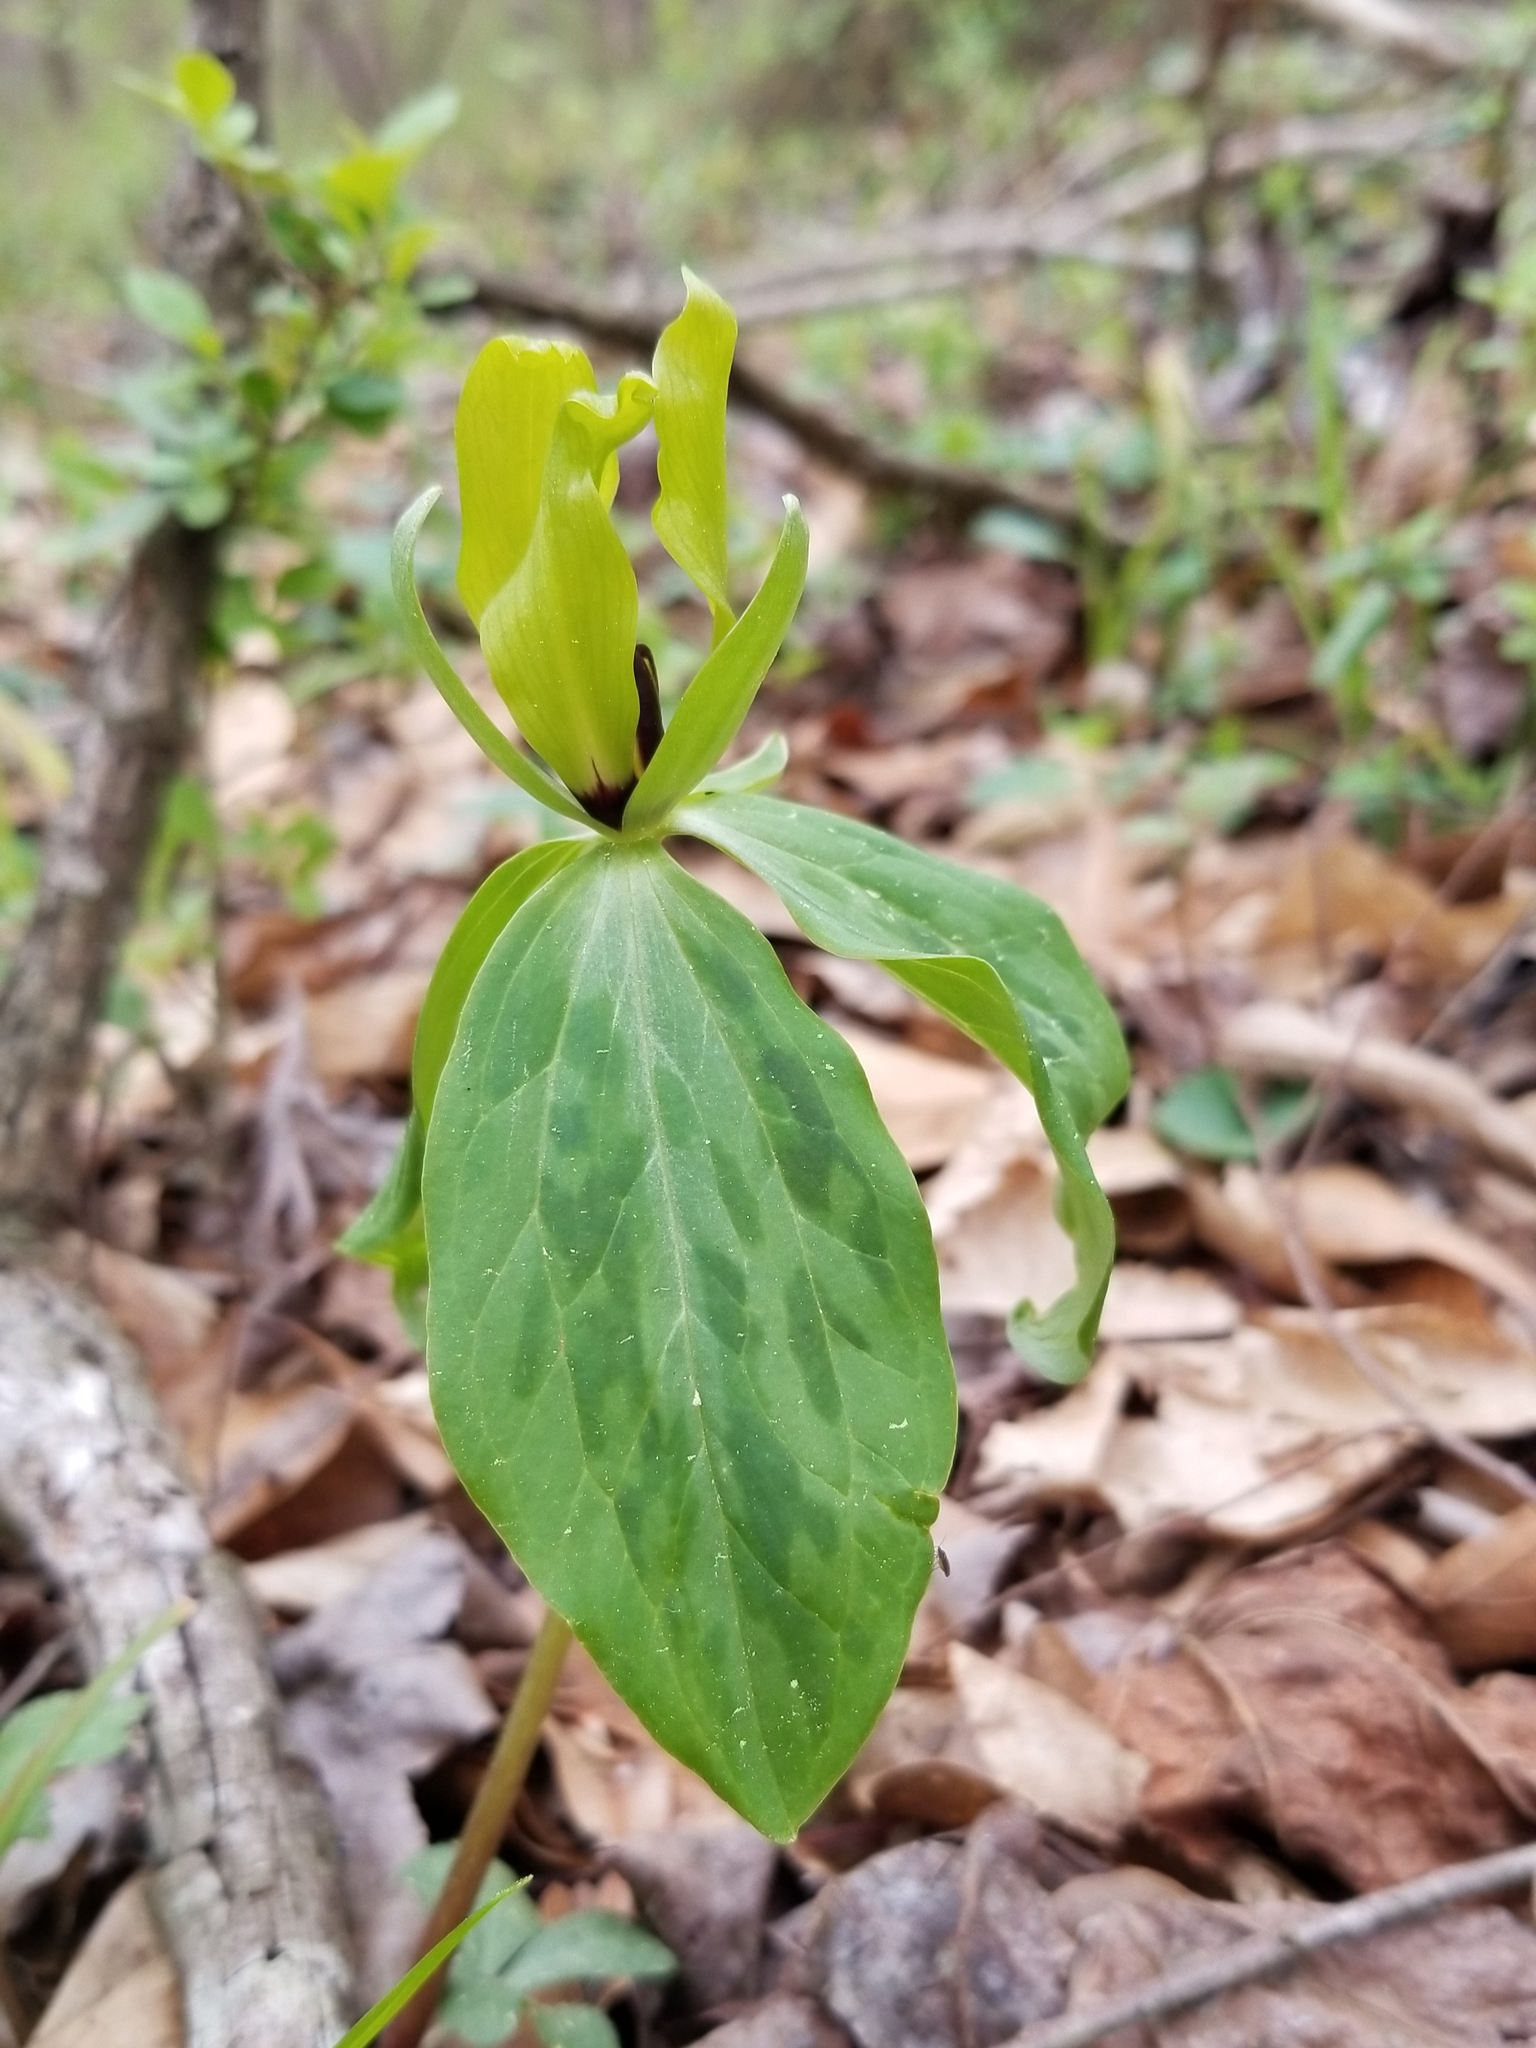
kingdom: Plantae
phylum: Tracheophyta
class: Liliopsida
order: Liliales
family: Melanthiaceae
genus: Trillium
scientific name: Trillium oostingii
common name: Wateree trillium
